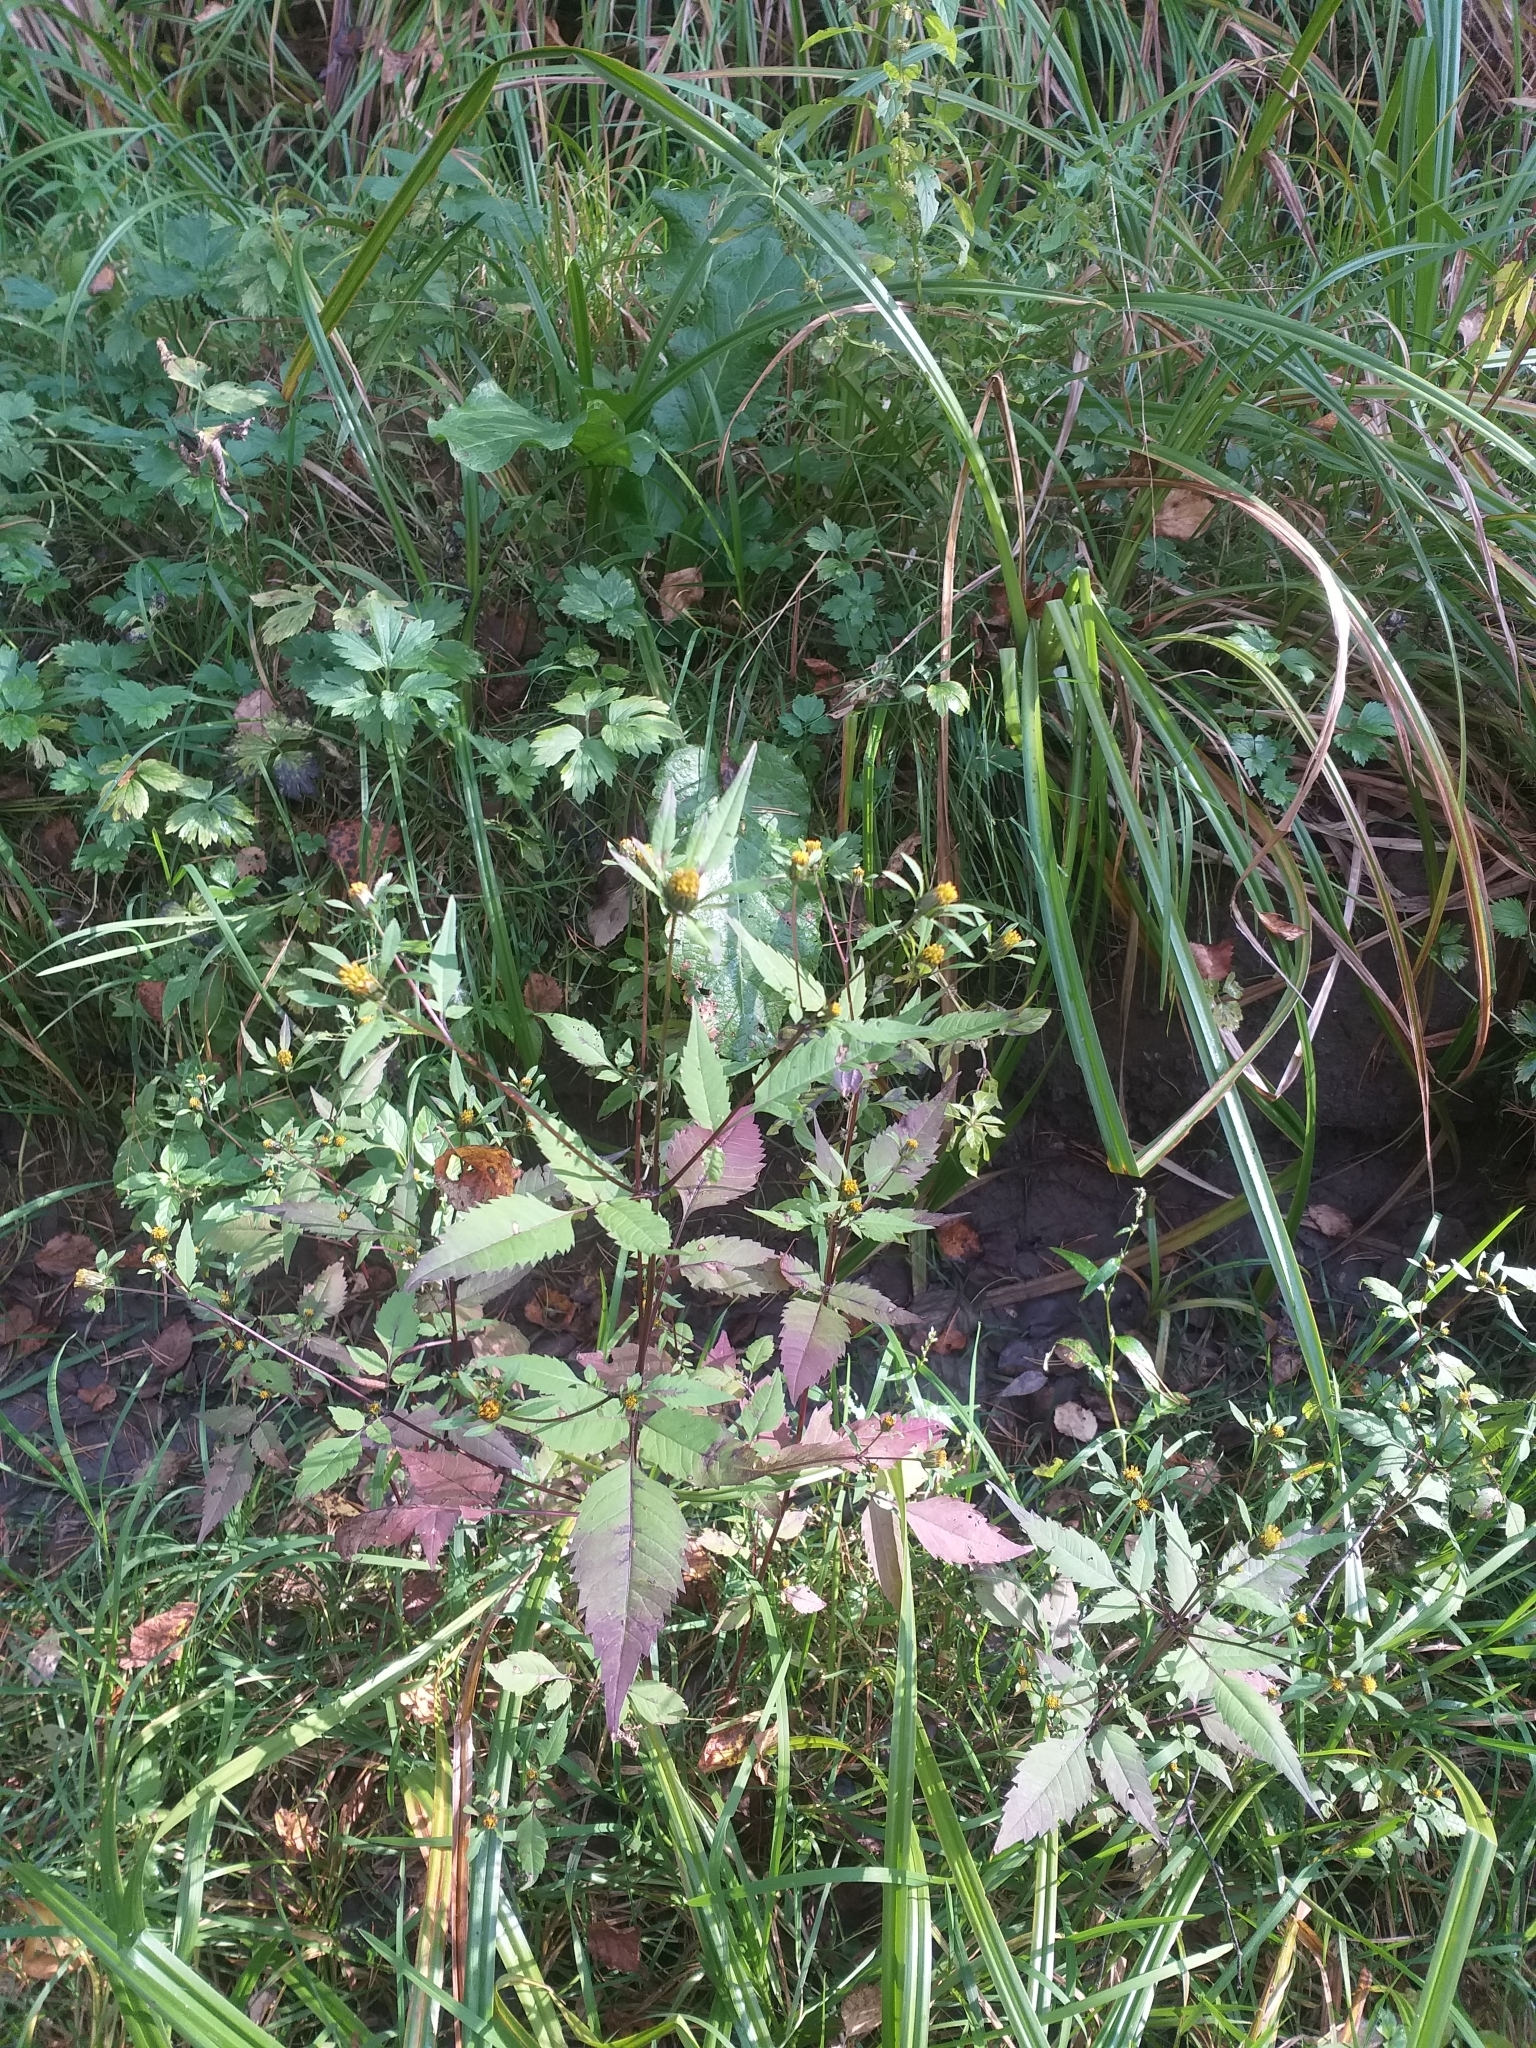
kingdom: Plantae
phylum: Tracheophyta
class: Magnoliopsida
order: Asterales
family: Asteraceae
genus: Bidens
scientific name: Bidens frondosa
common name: Beggarticks
